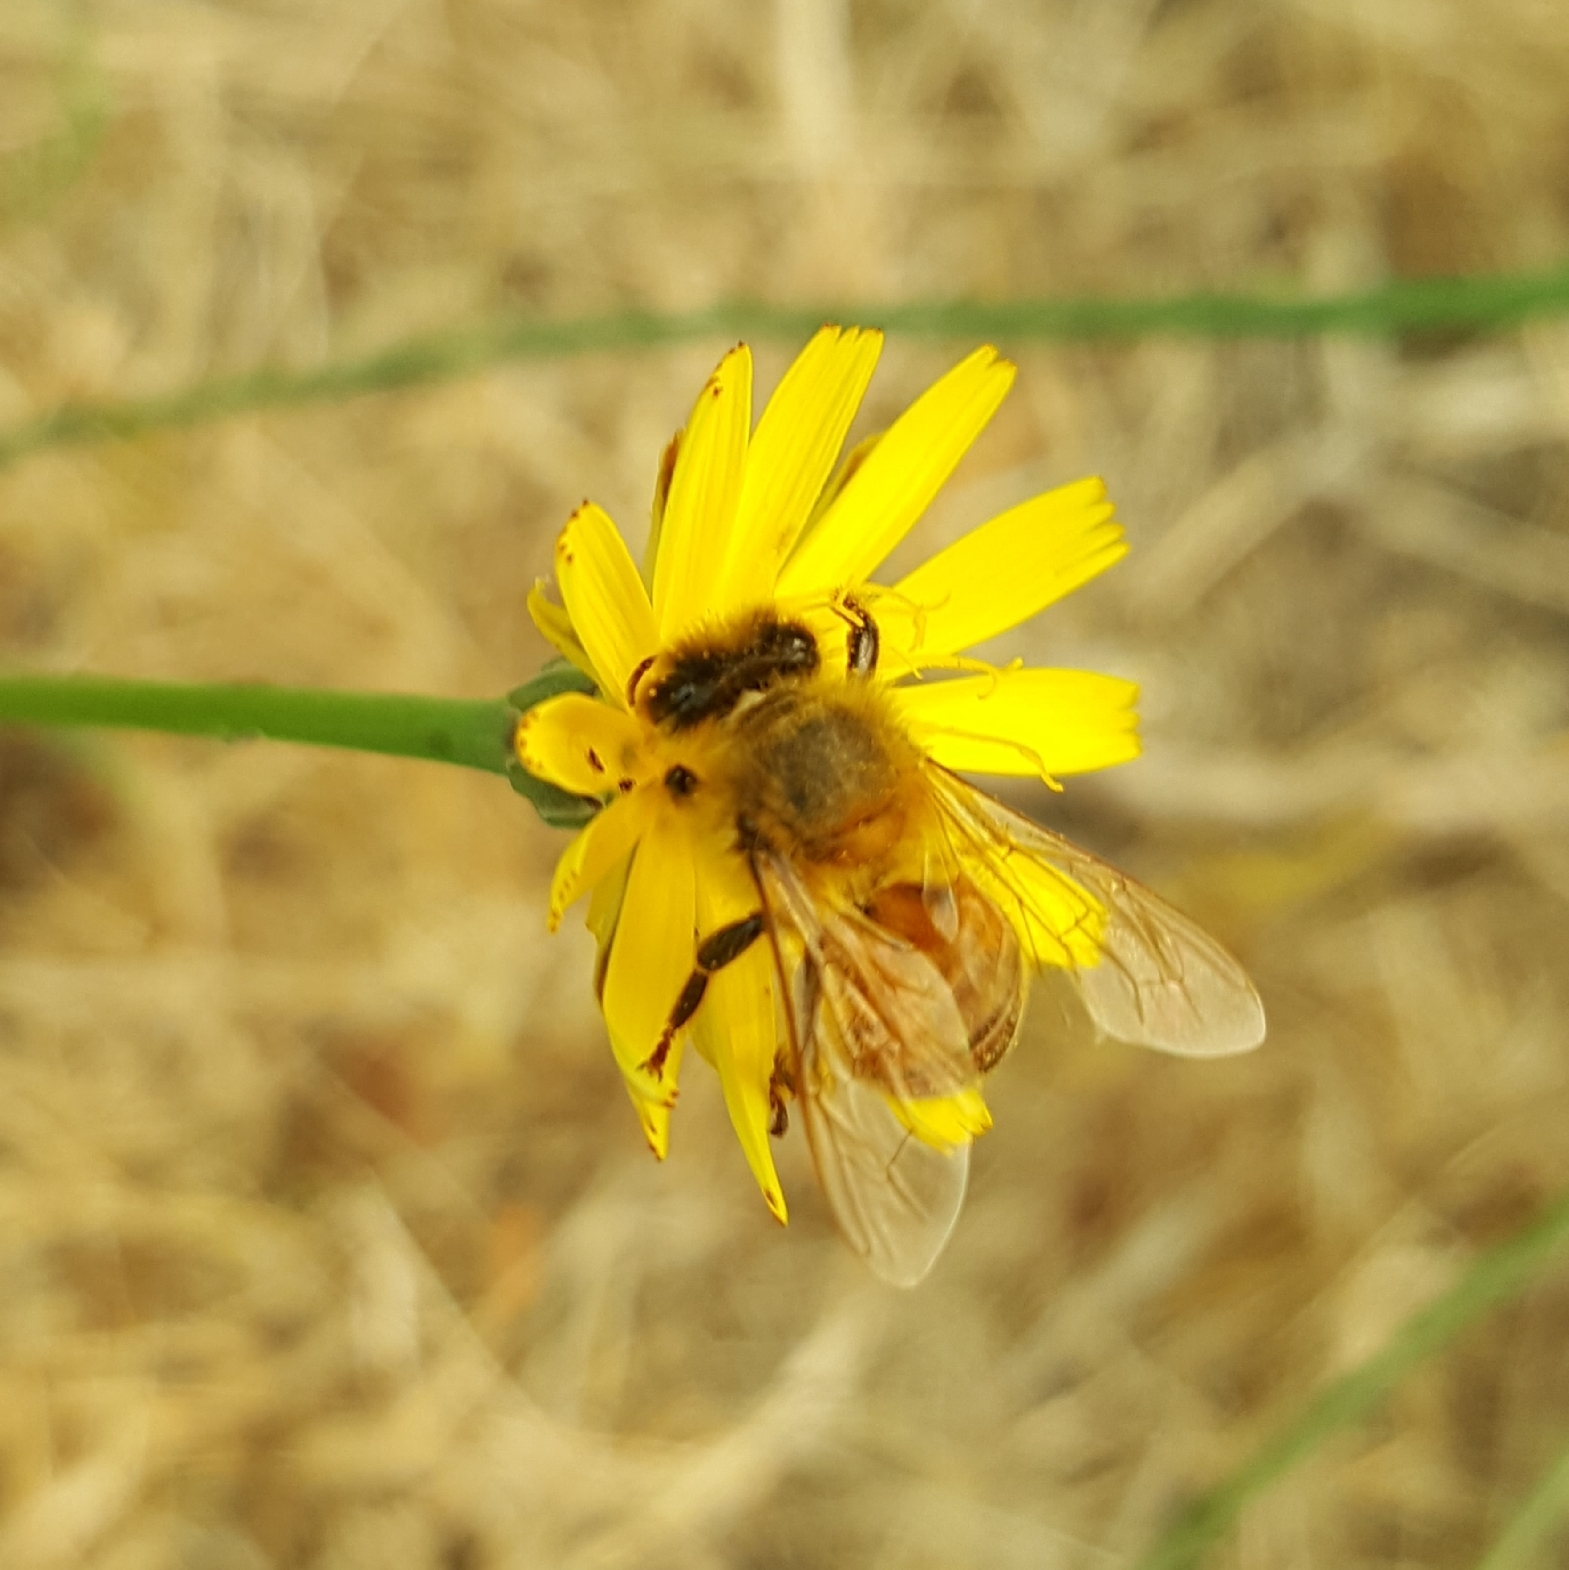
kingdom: Animalia
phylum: Arthropoda
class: Insecta
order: Hymenoptera
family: Apidae
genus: Apis
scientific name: Apis mellifera
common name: Honey bee
